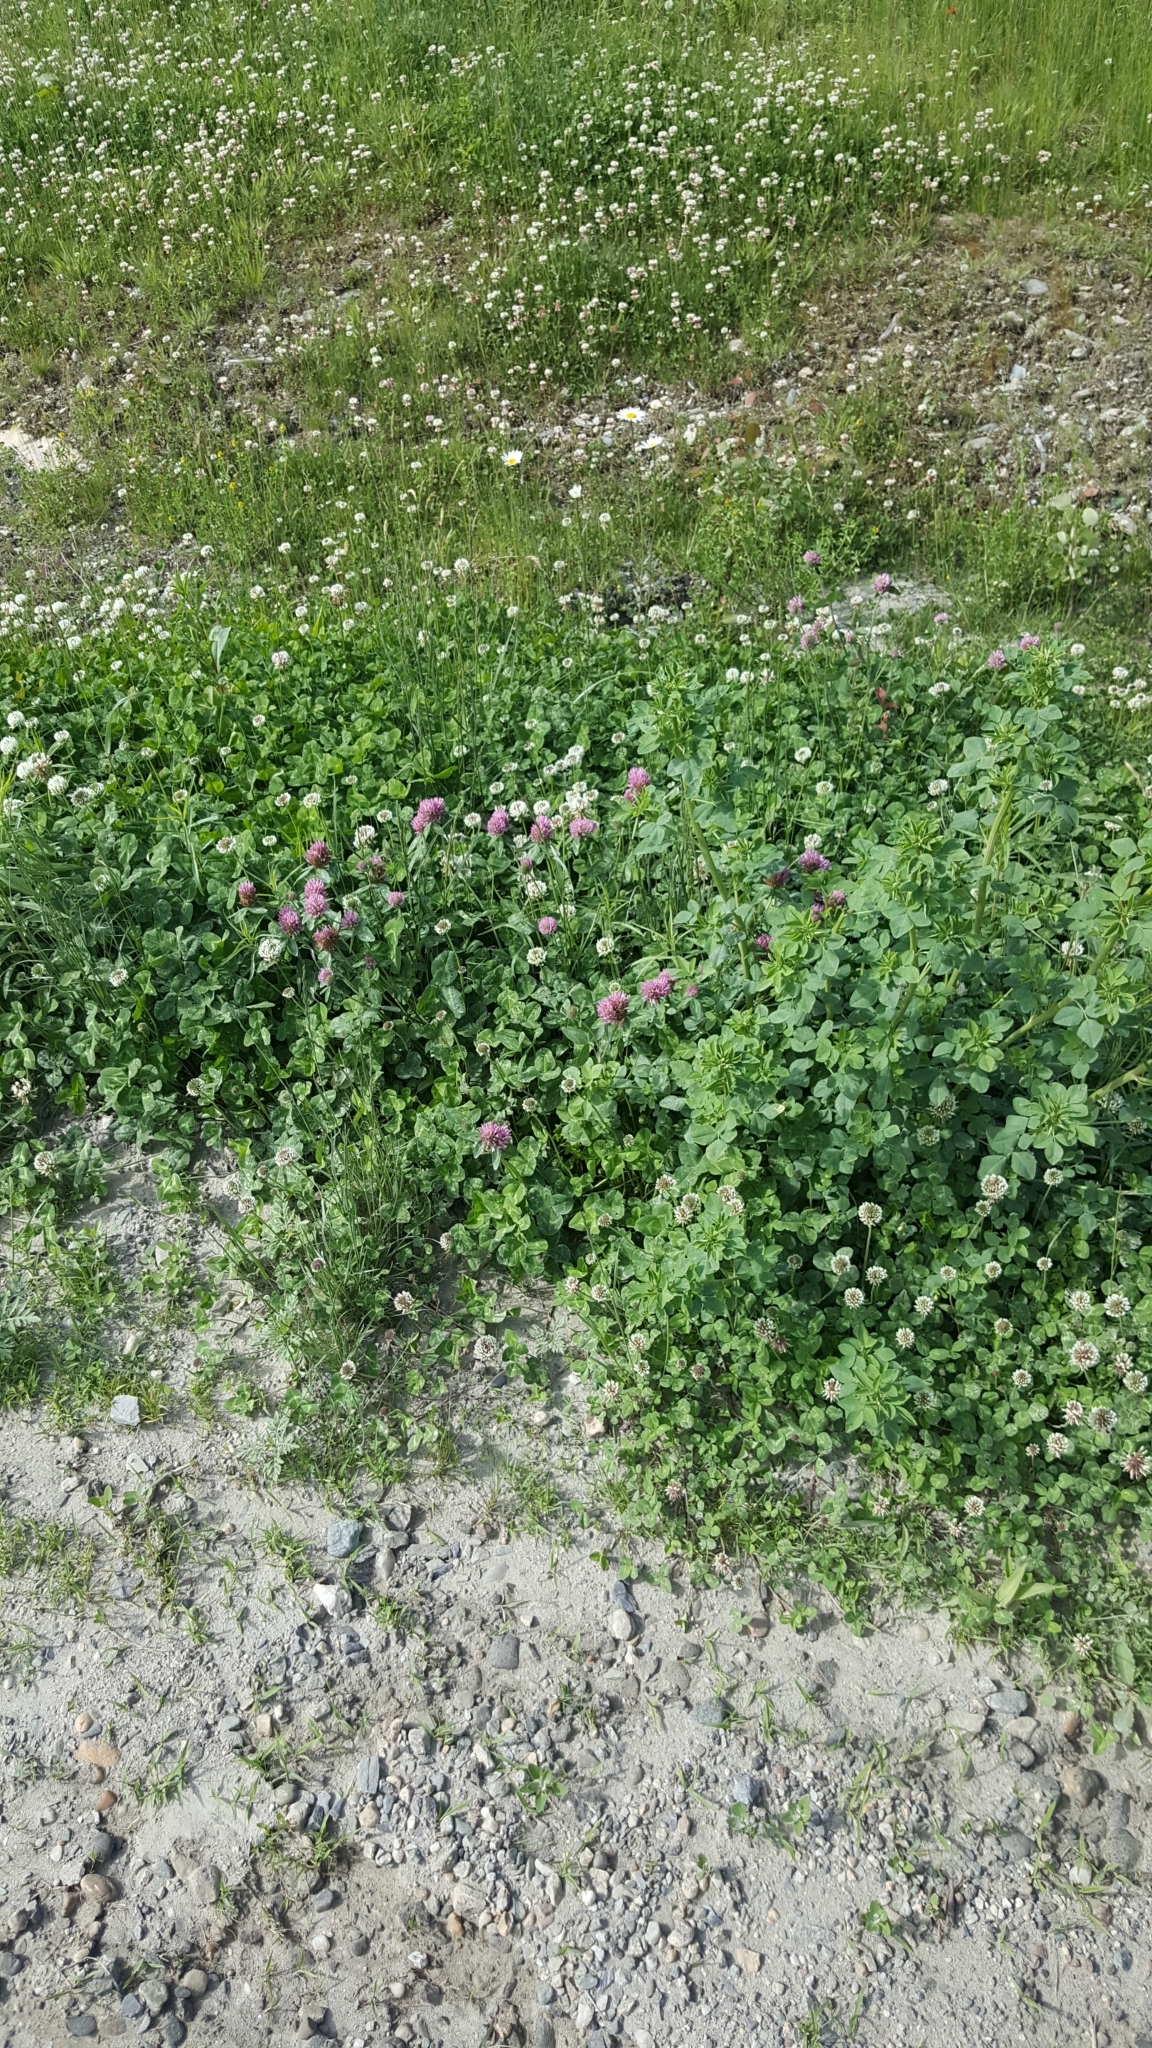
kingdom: Plantae
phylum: Tracheophyta
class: Magnoliopsida
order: Fabales
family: Fabaceae
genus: Trifolium
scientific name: Trifolium pratense
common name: Red clover
